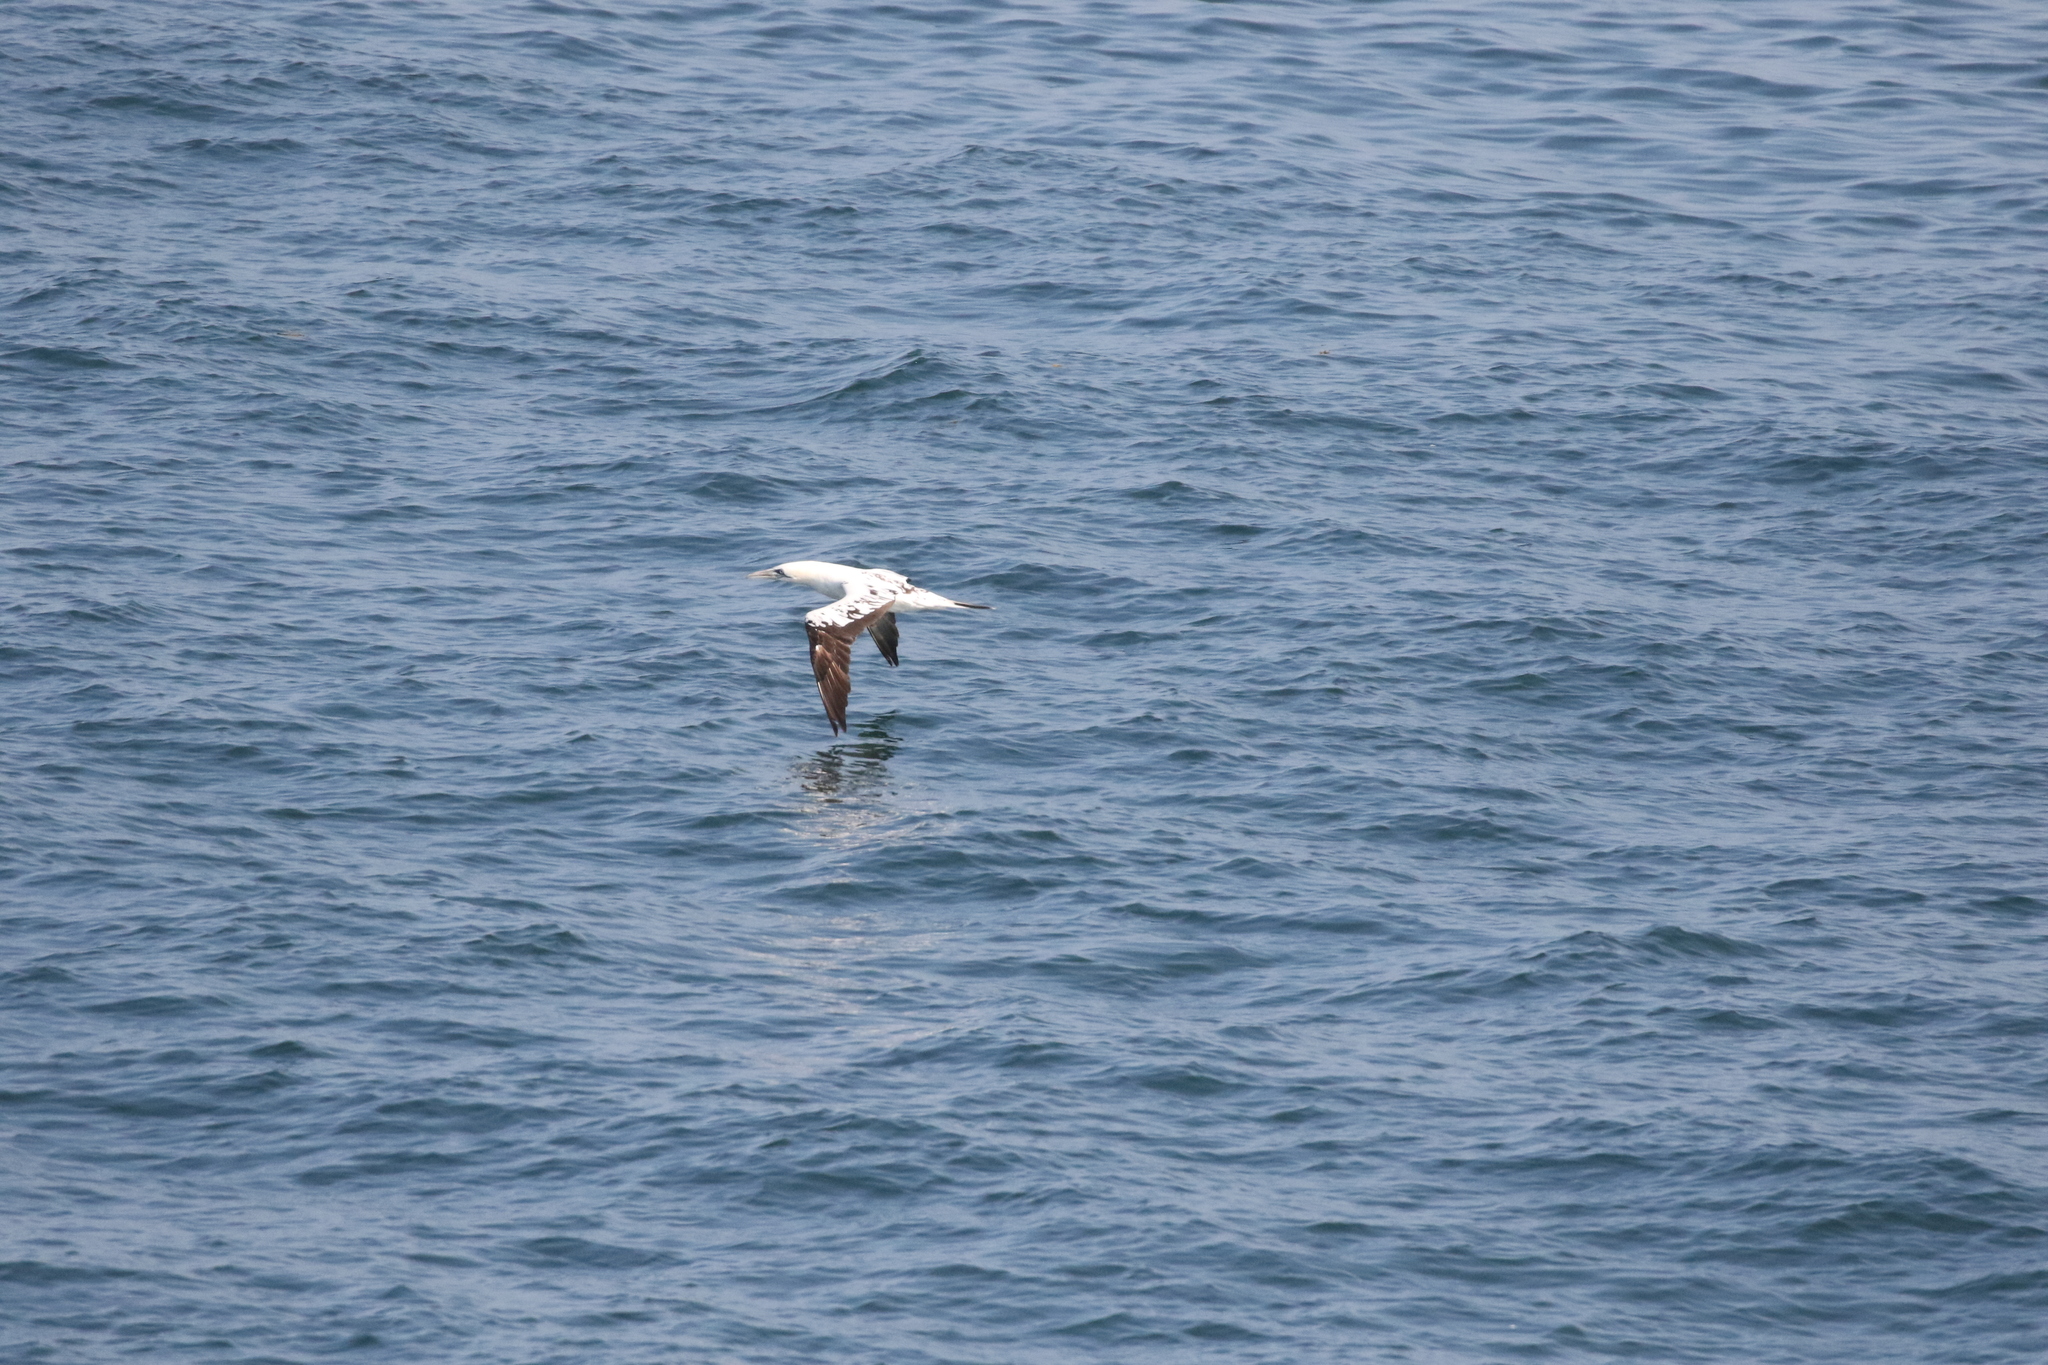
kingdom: Animalia
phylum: Chordata
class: Aves
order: Suliformes
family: Sulidae
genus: Morus
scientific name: Morus bassanus
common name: Northern gannet
